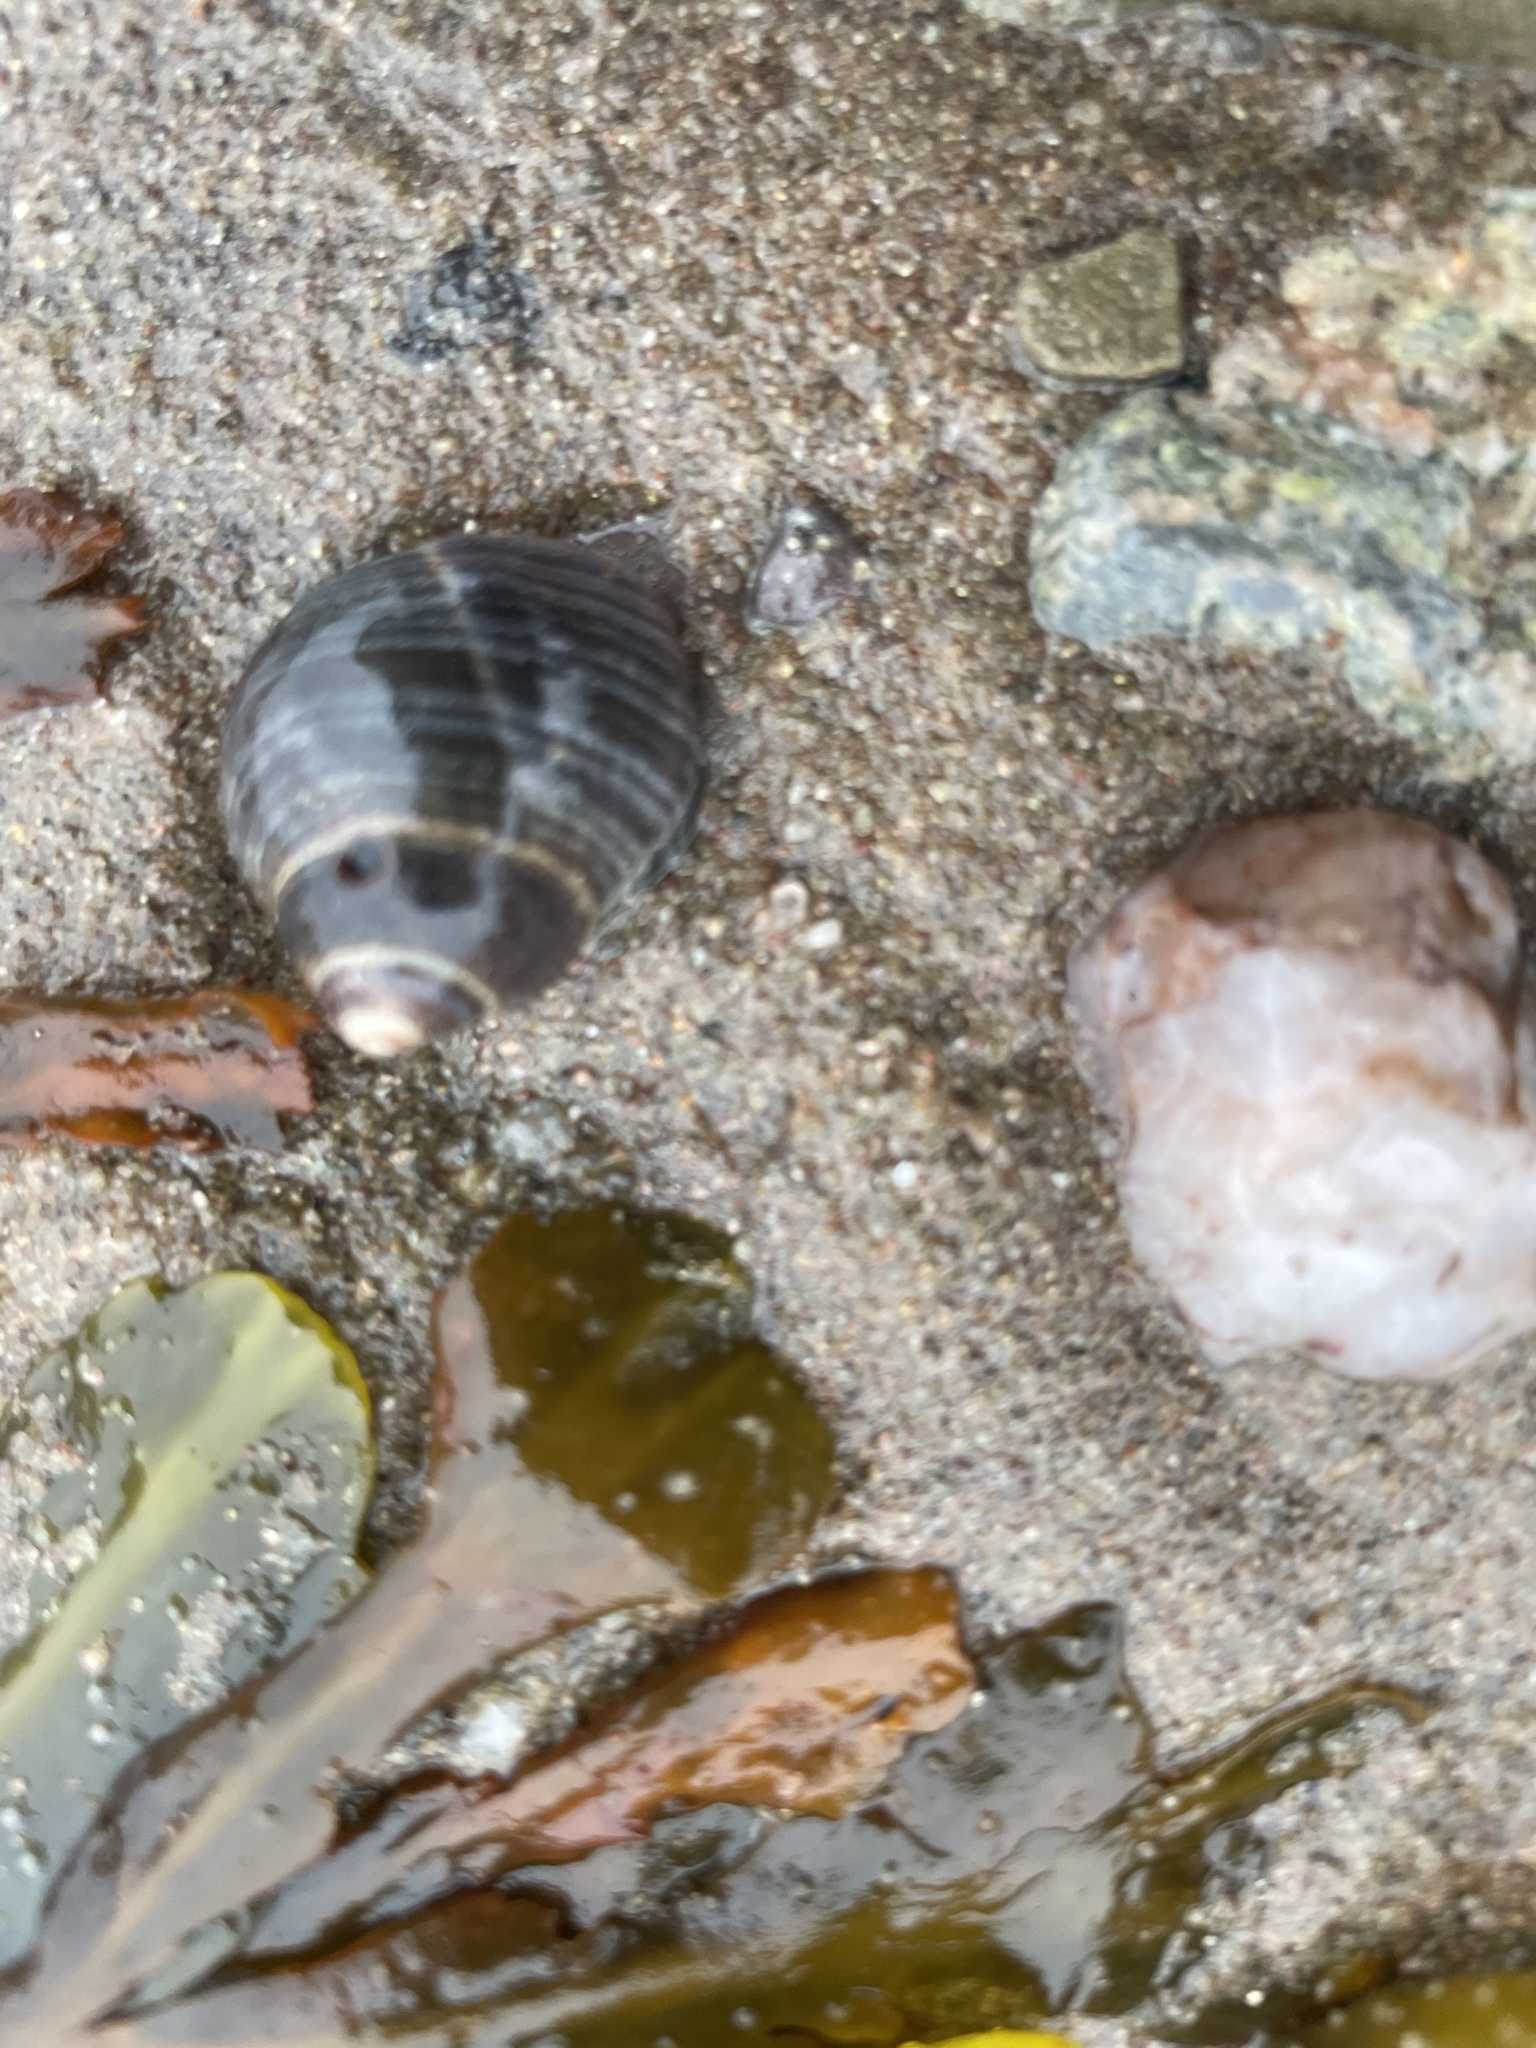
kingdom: Animalia
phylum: Mollusca
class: Gastropoda
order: Littorinimorpha
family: Littorinidae
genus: Littorina
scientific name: Littorina littorea
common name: Common periwinkle
